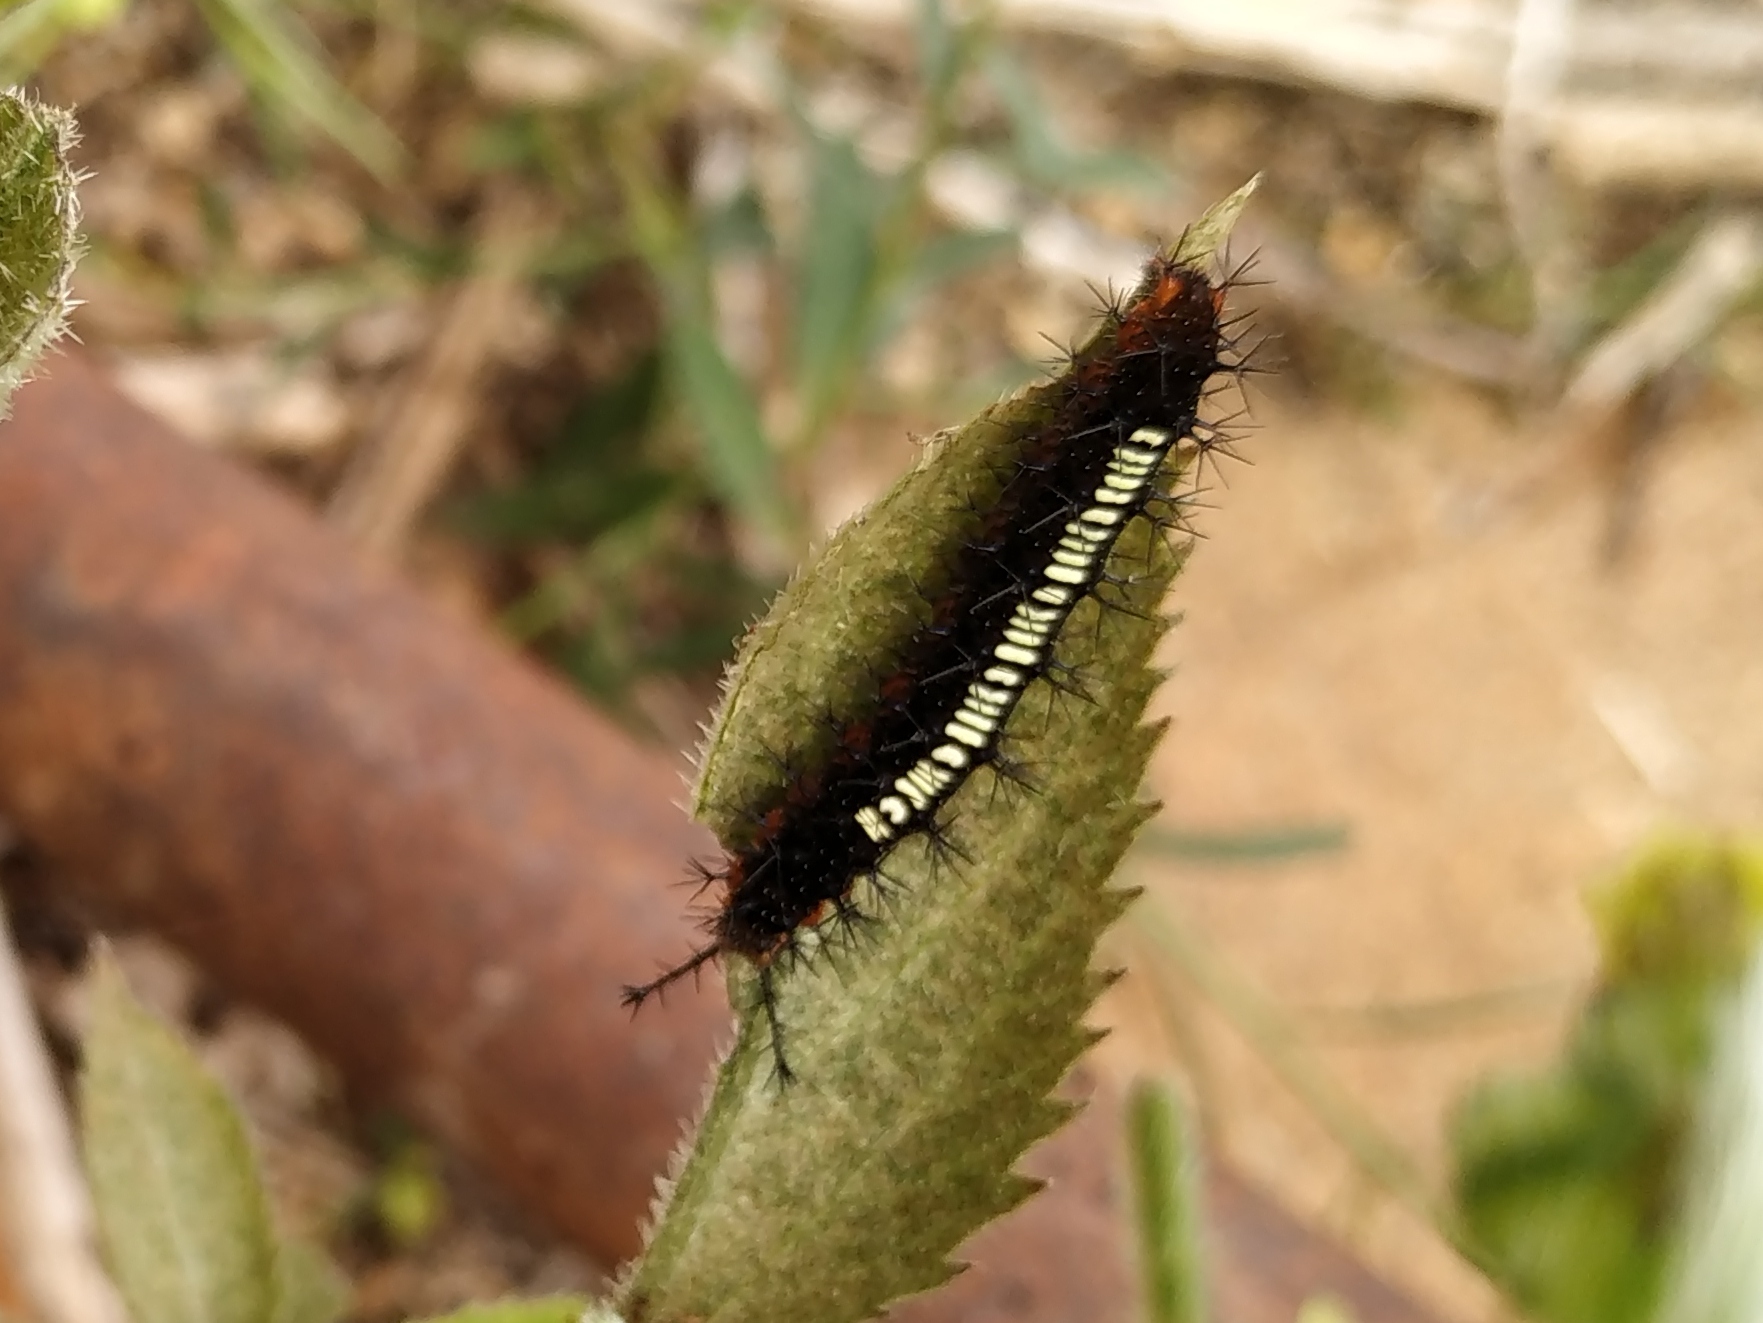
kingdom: Animalia
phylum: Arthropoda
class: Insecta
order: Lepidoptera
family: Nymphalidae
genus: Ariadne
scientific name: Ariadne ariadne
